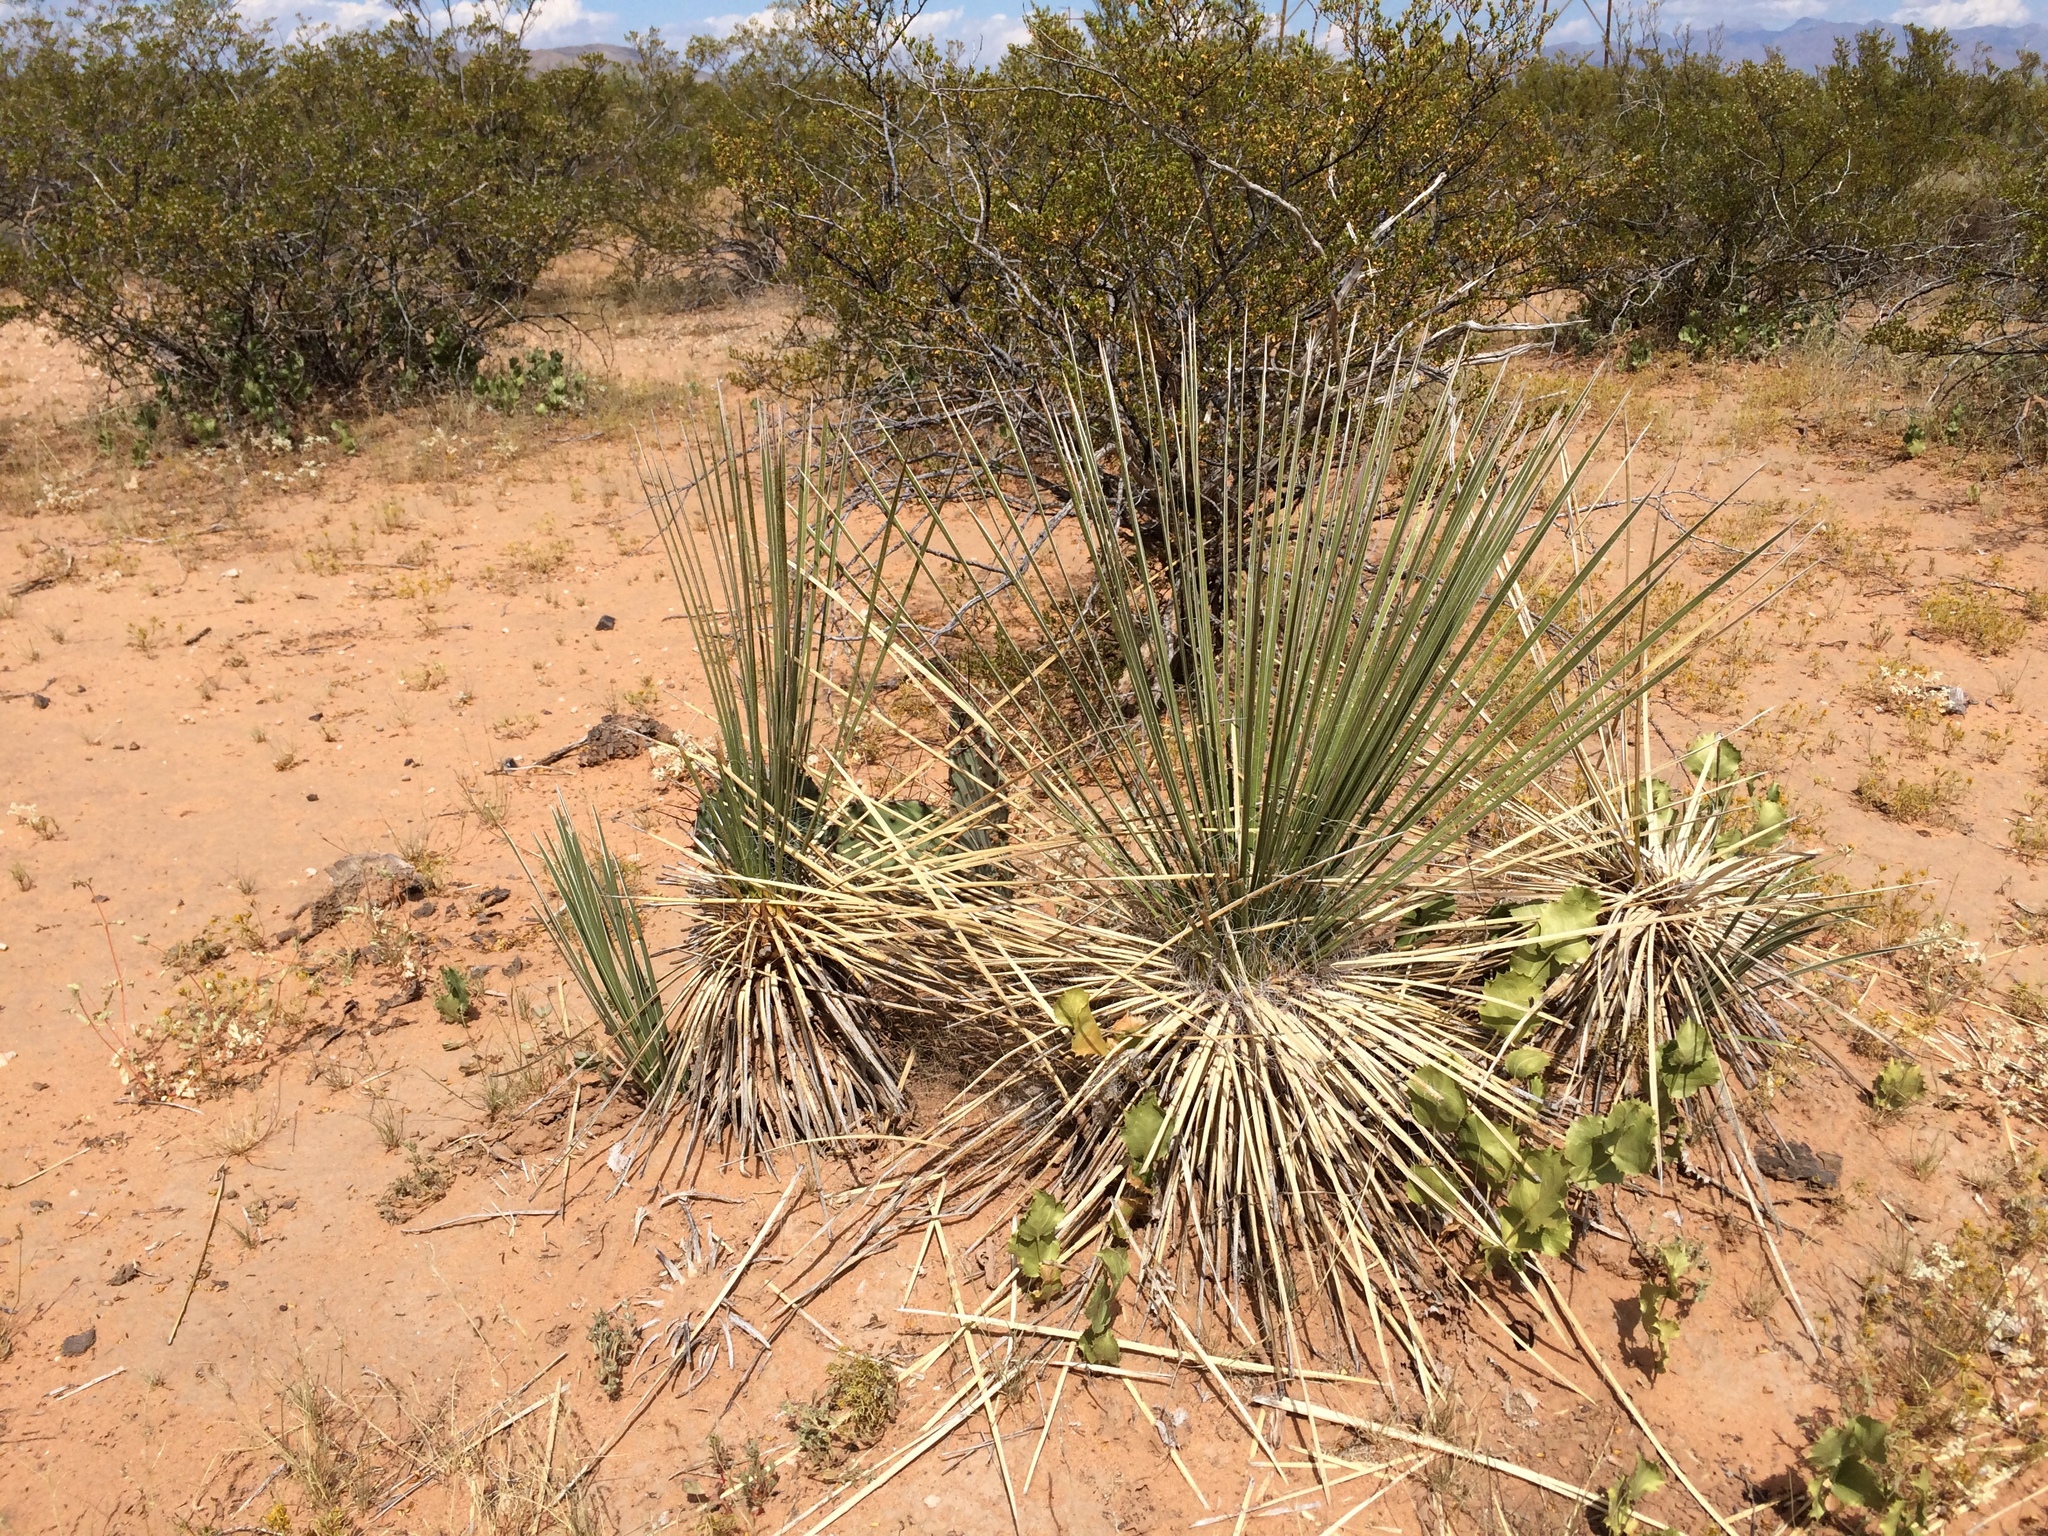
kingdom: Plantae
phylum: Tracheophyta
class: Liliopsida
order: Asparagales
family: Asparagaceae
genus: Yucca
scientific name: Yucca elata
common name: Palmella
